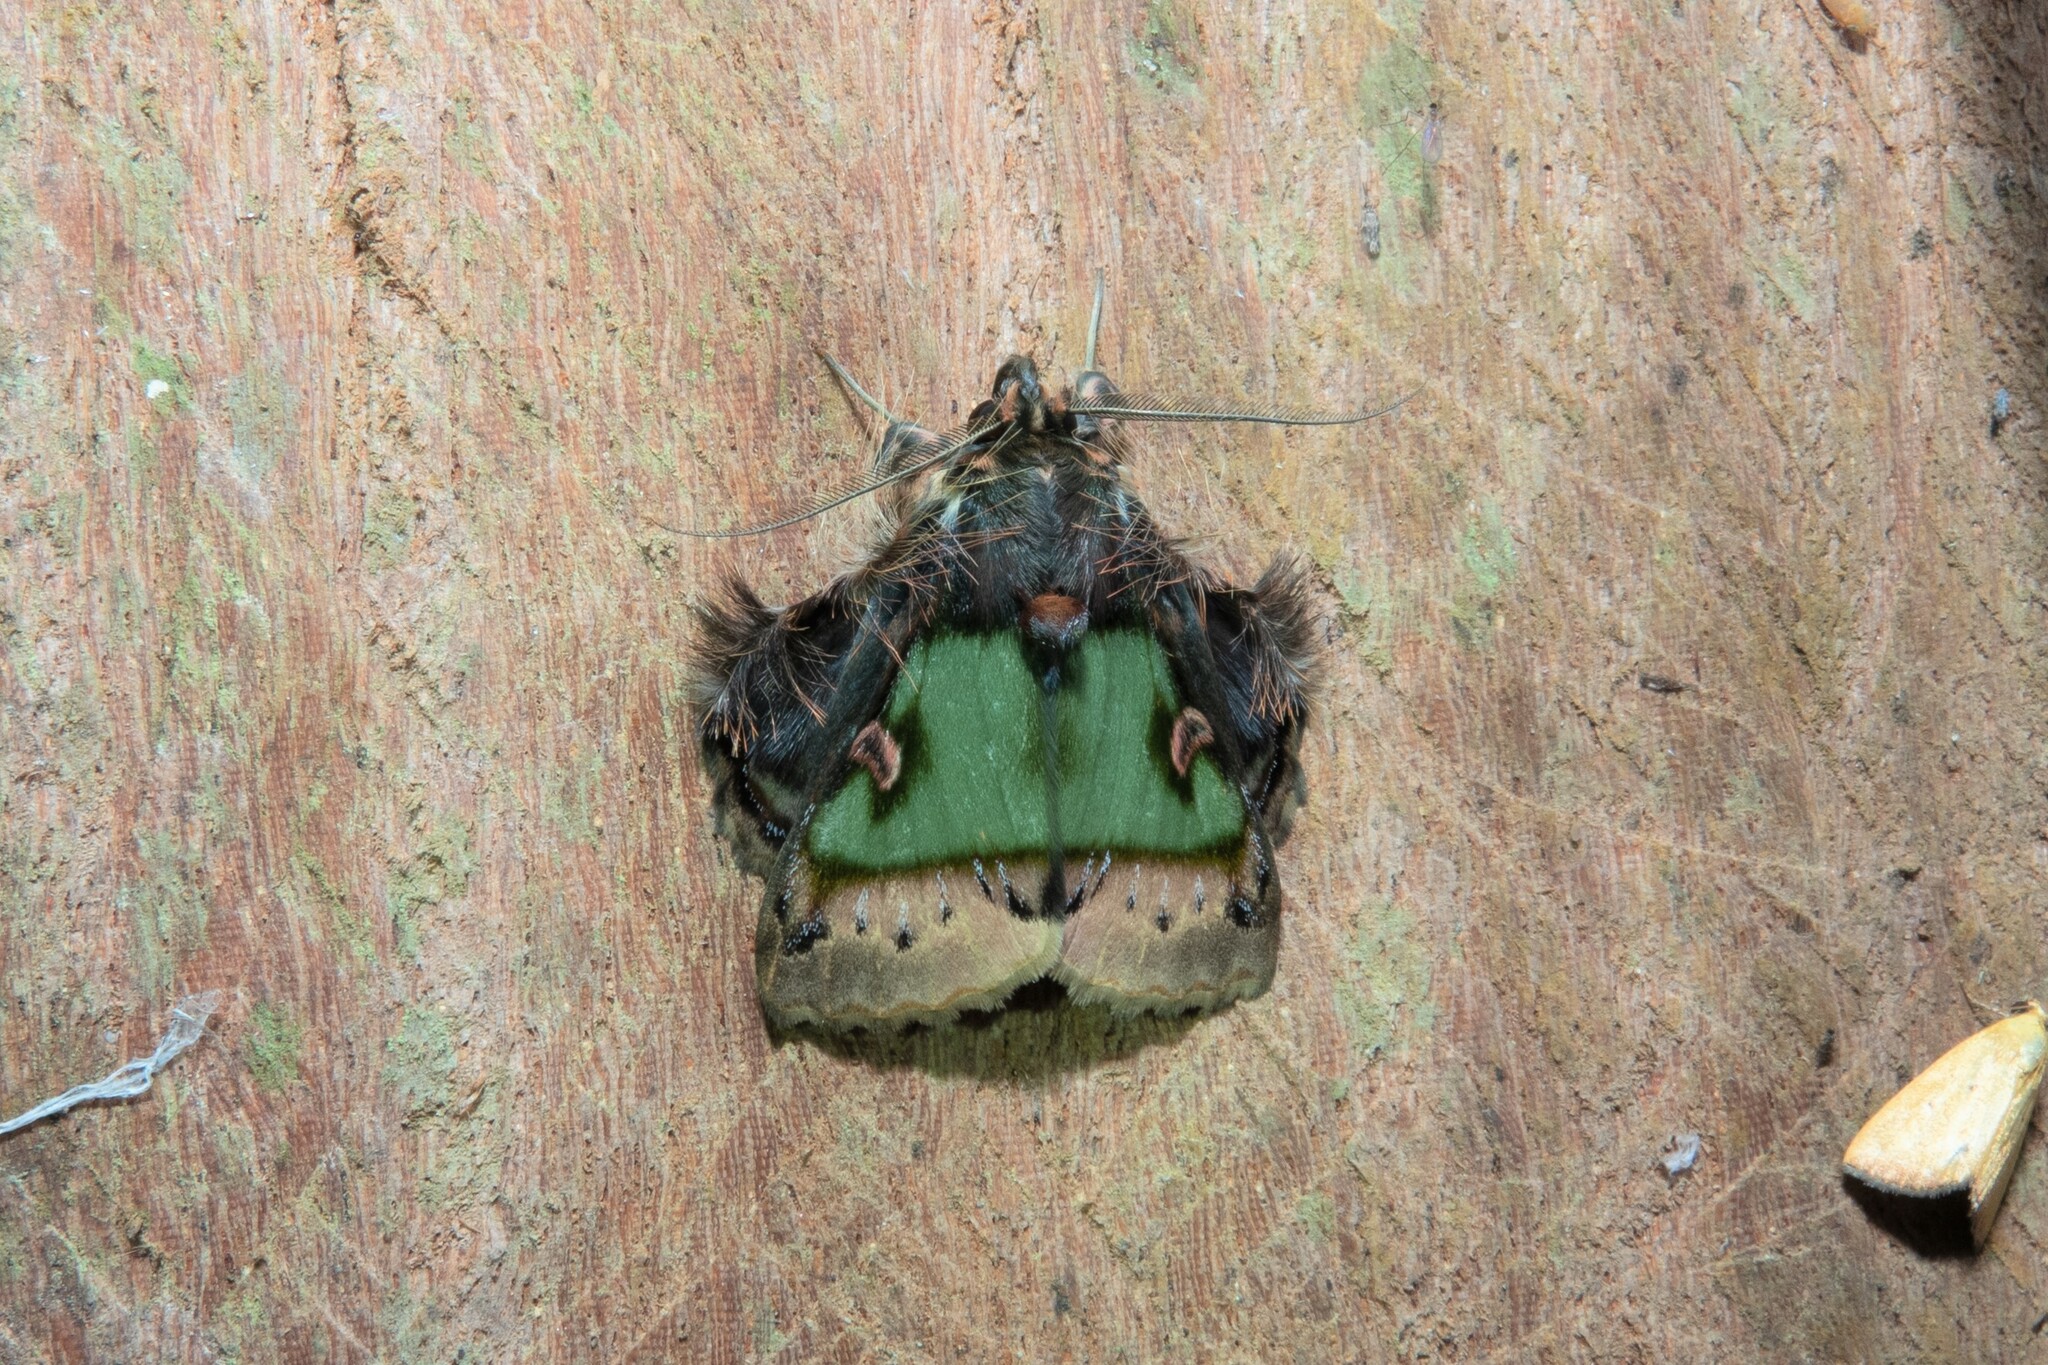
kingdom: Animalia
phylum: Arthropoda
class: Insecta
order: Lepidoptera
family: Erebidae
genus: Ceroctena
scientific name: Ceroctena amynta
